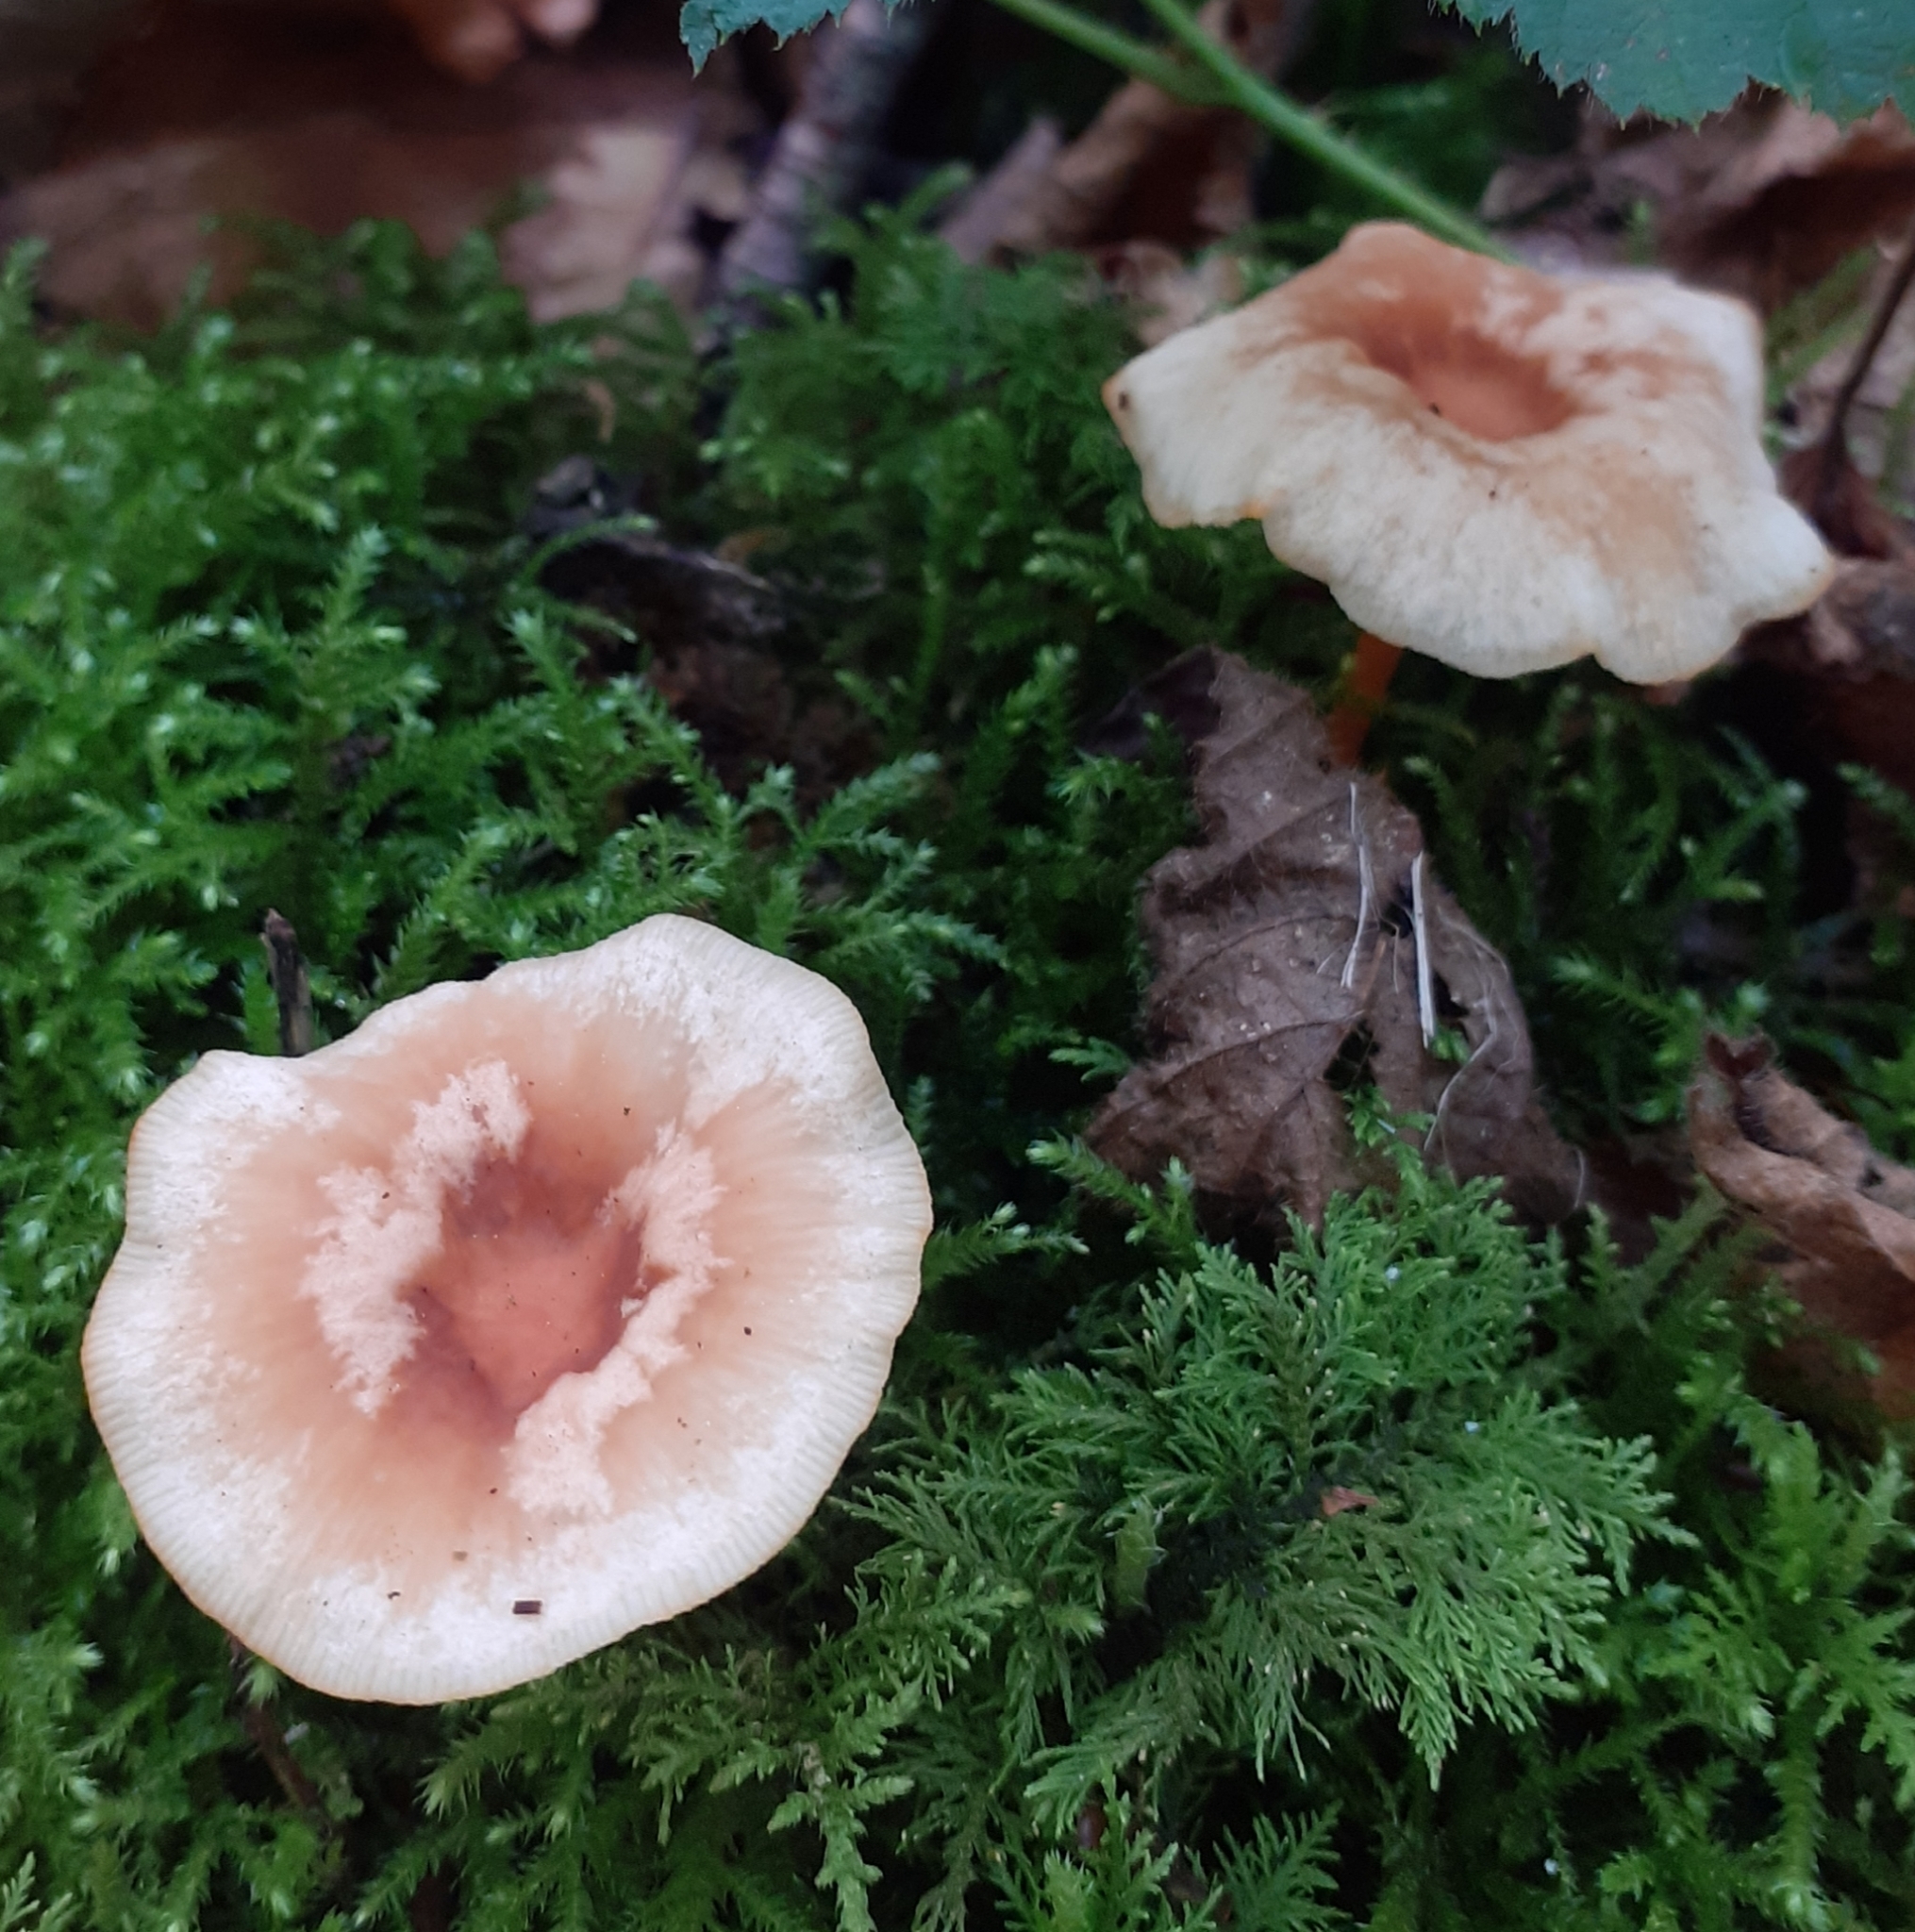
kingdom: Fungi
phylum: Basidiomycota
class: Agaricomycetes
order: Agaricales
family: Omphalotaceae
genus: Gymnopus
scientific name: Gymnopus dryophilus
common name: Penny top
